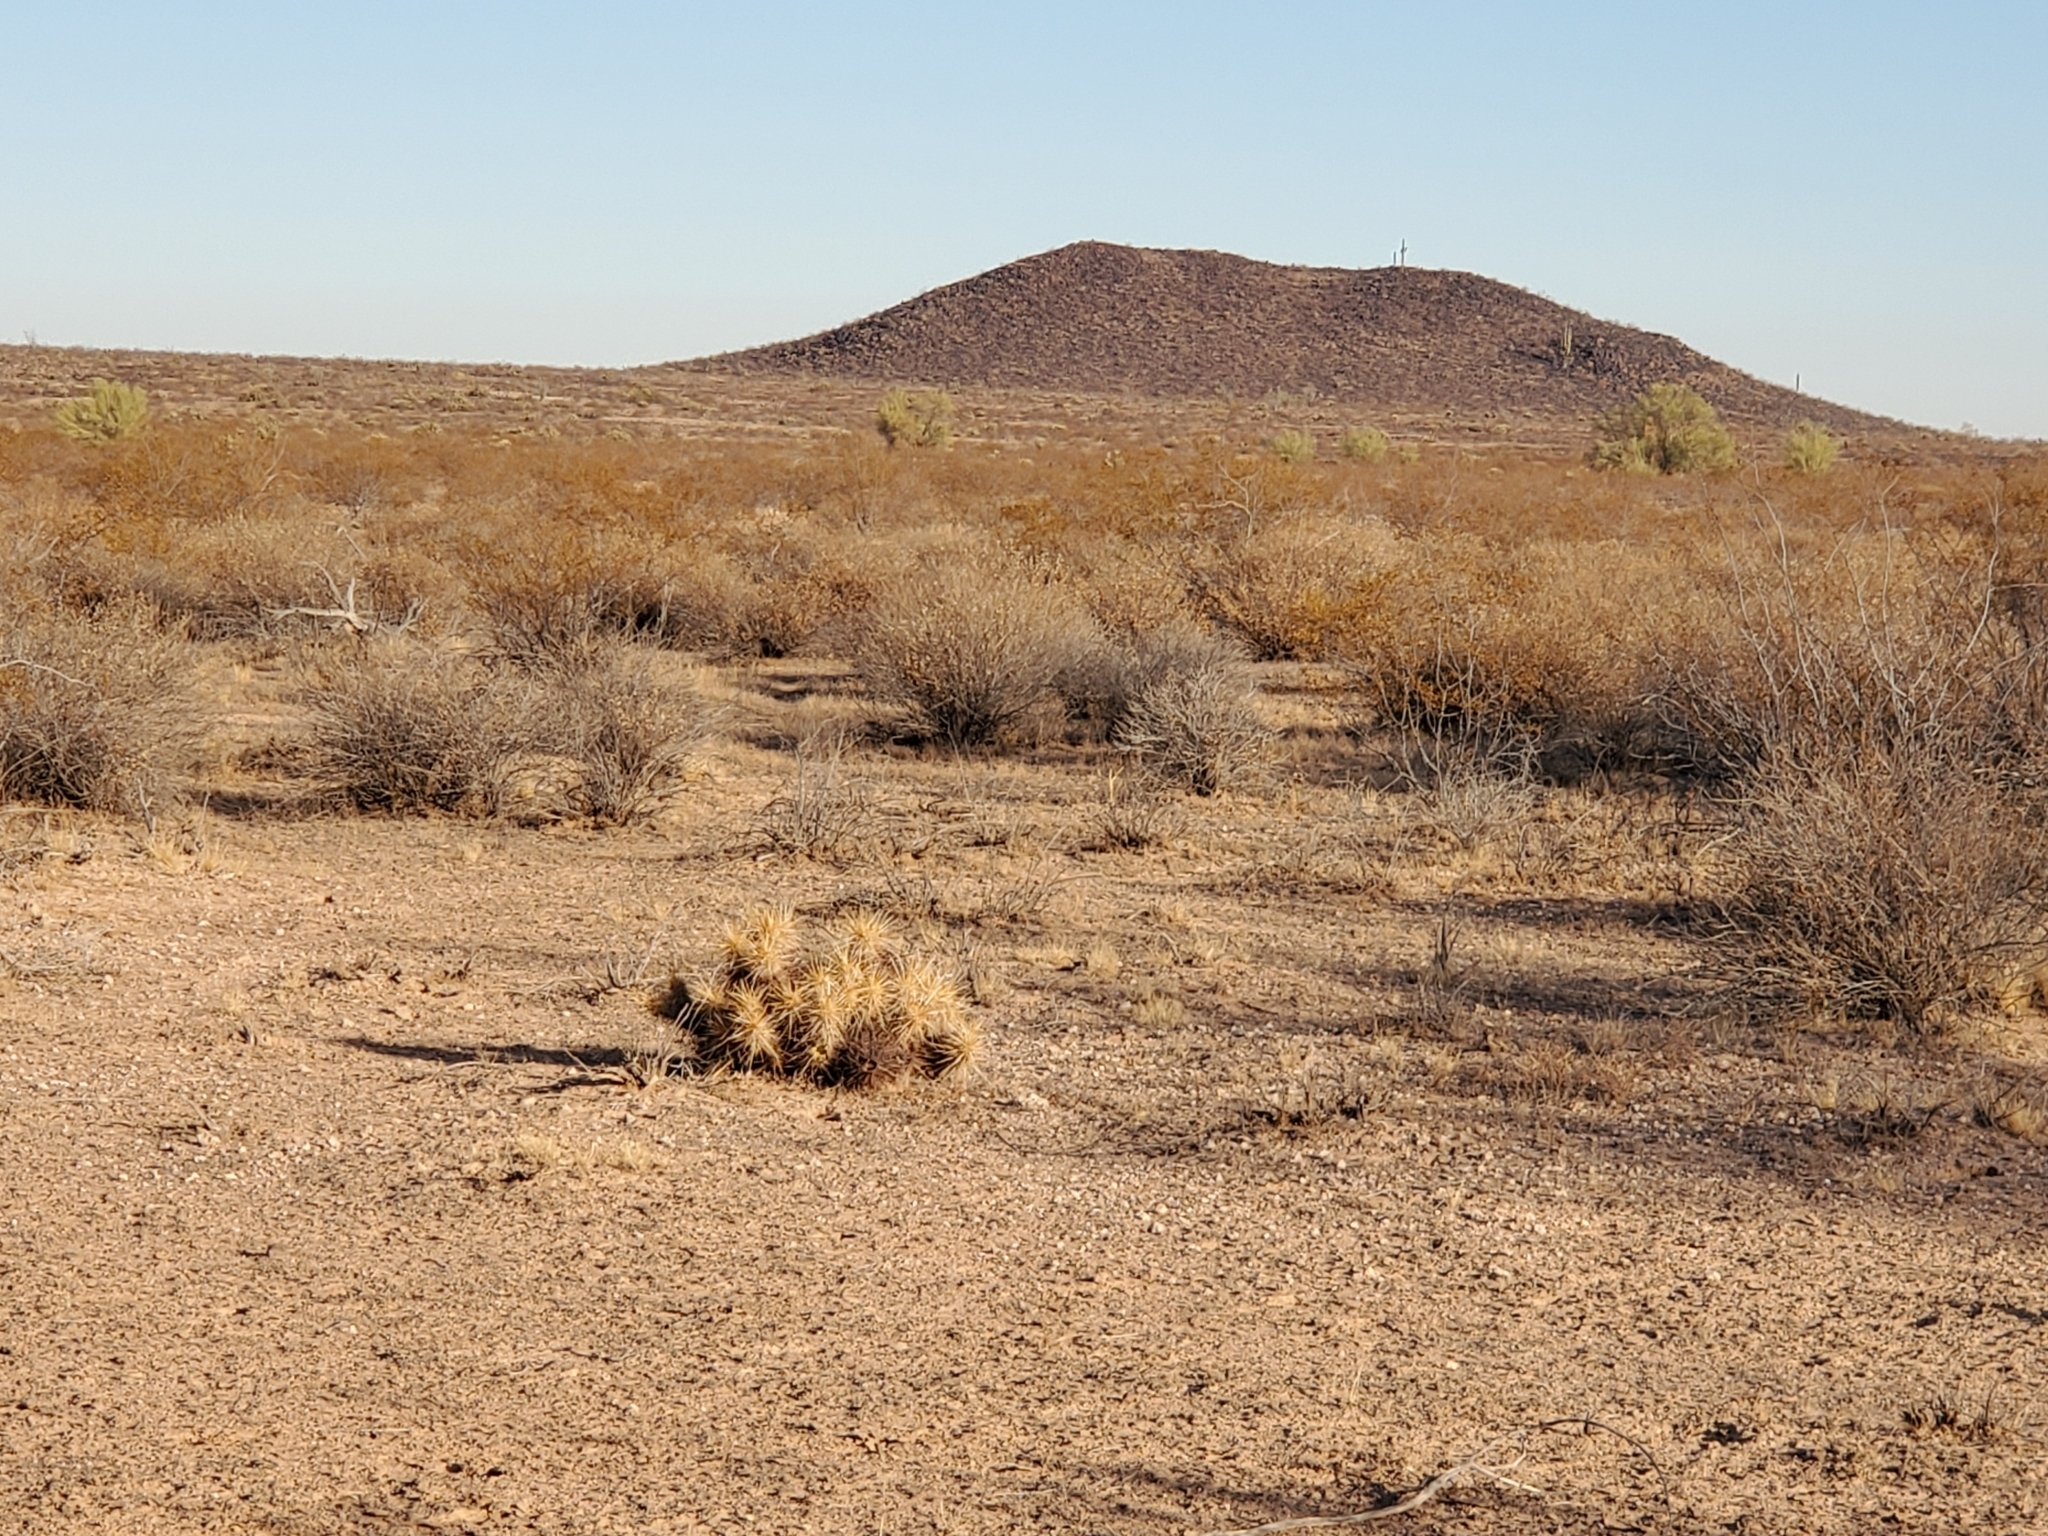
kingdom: Plantae
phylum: Tracheophyta
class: Magnoliopsida
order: Caryophyllales
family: Cactaceae
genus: Echinocereus
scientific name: Echinocereus engelmannii
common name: Engelmann's hedgehog cactus
